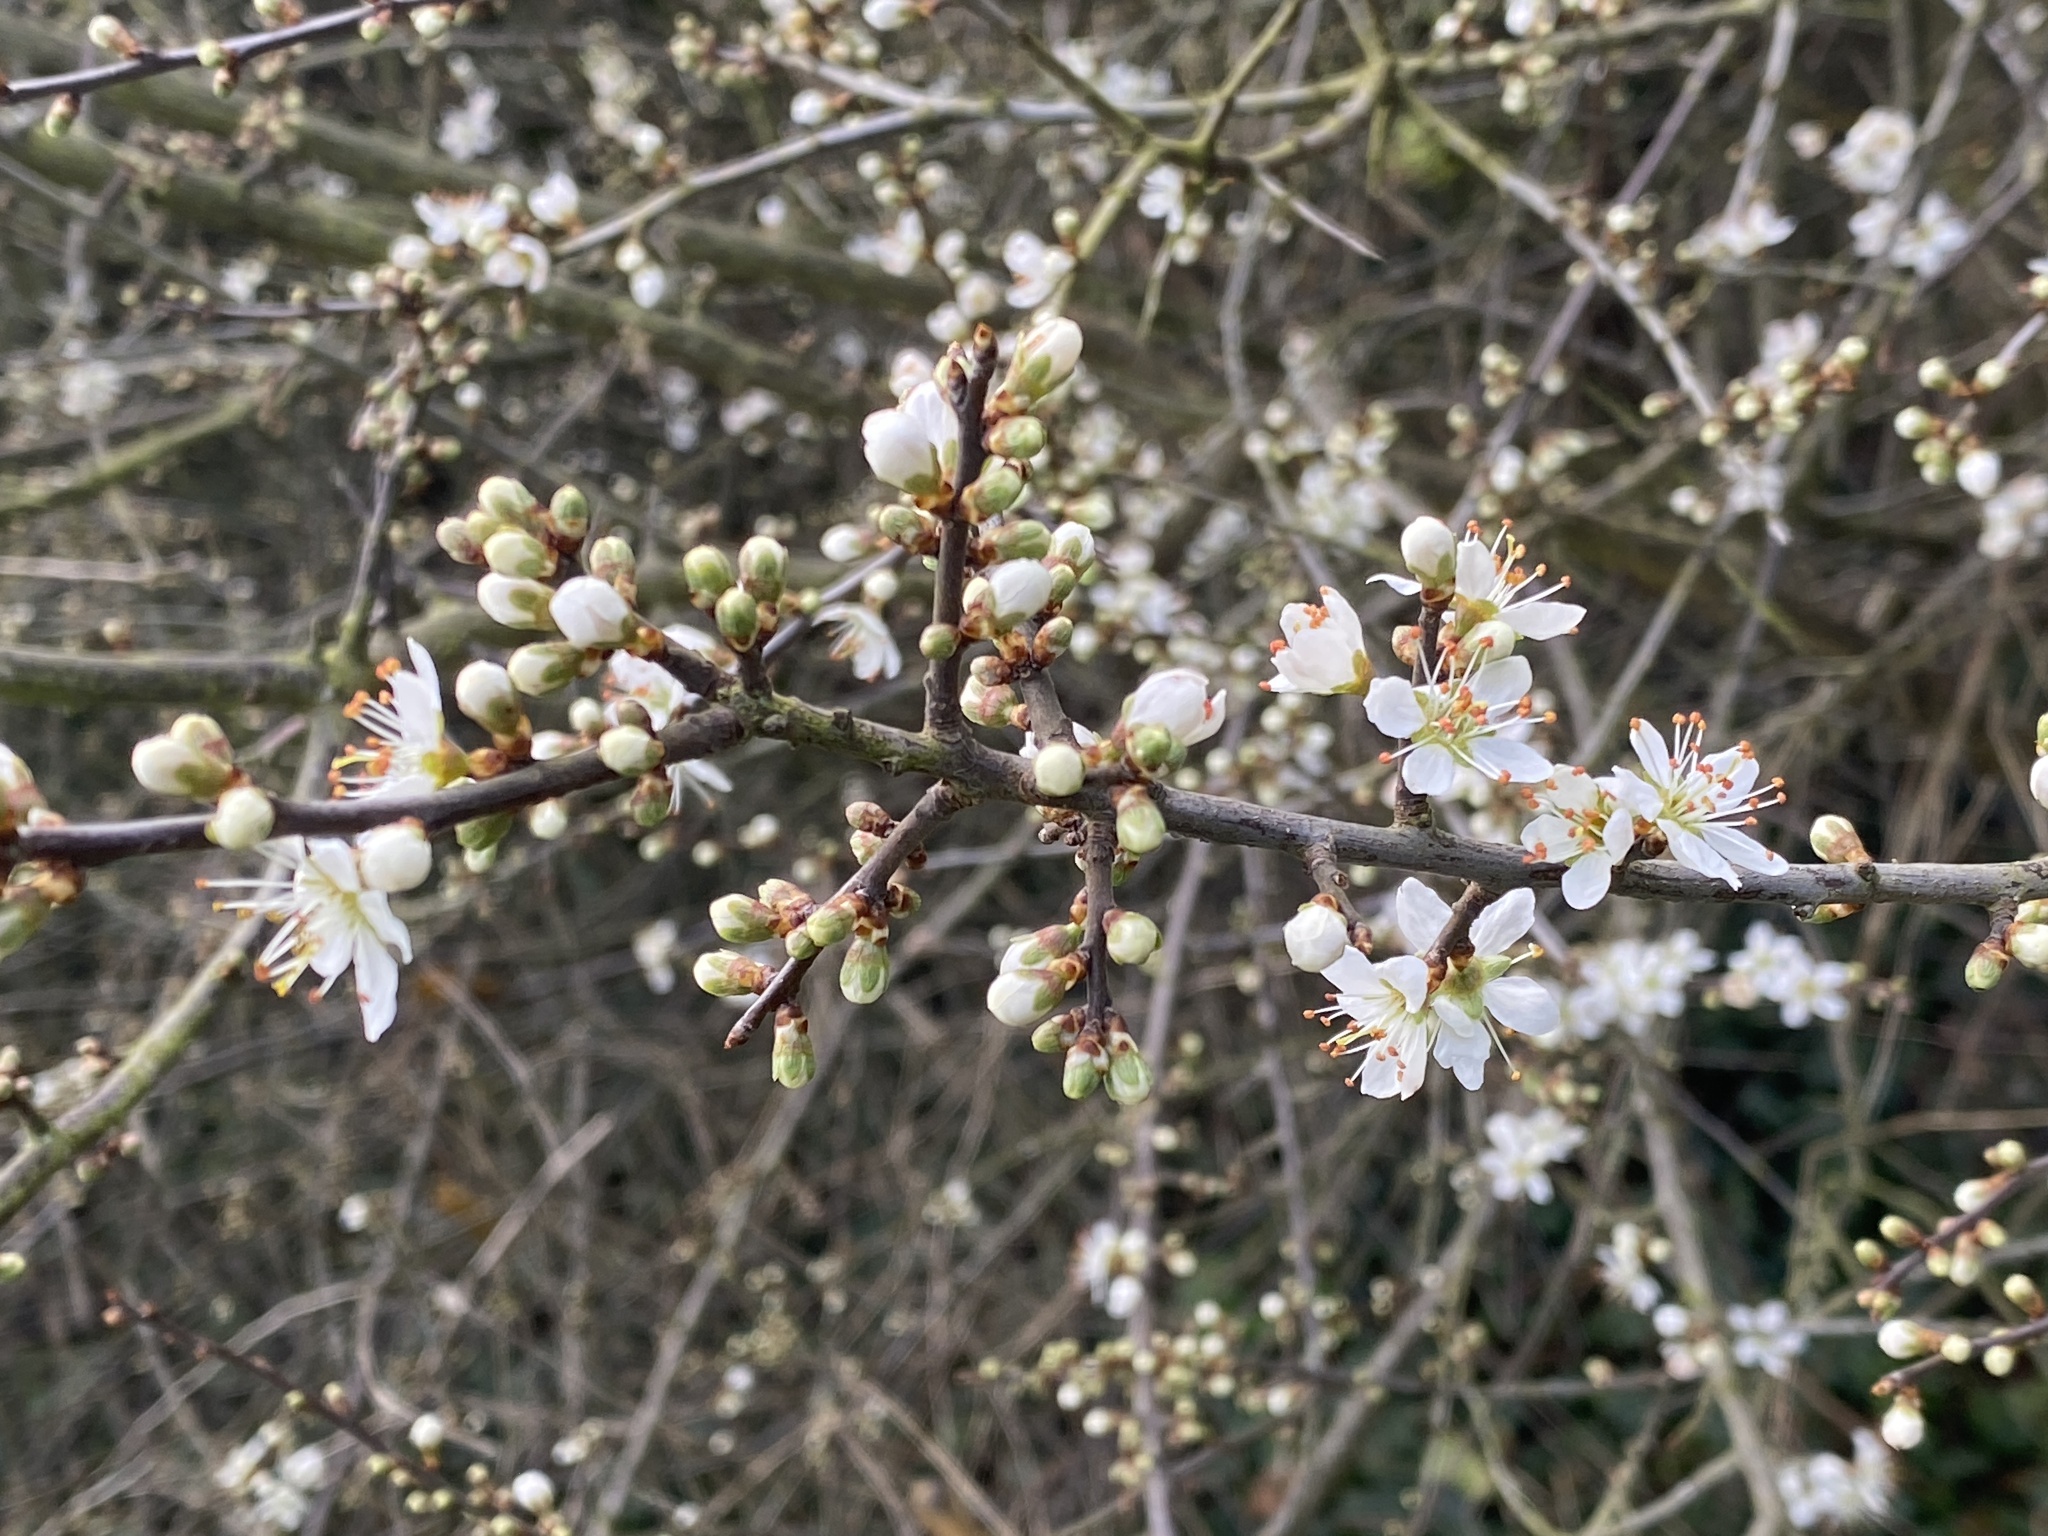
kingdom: Plantae
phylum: Tracheophyta
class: Magnoliopsida
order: Rosales
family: Rosaceae
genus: Prunus
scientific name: Prunus spinosa
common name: Blackthorn
